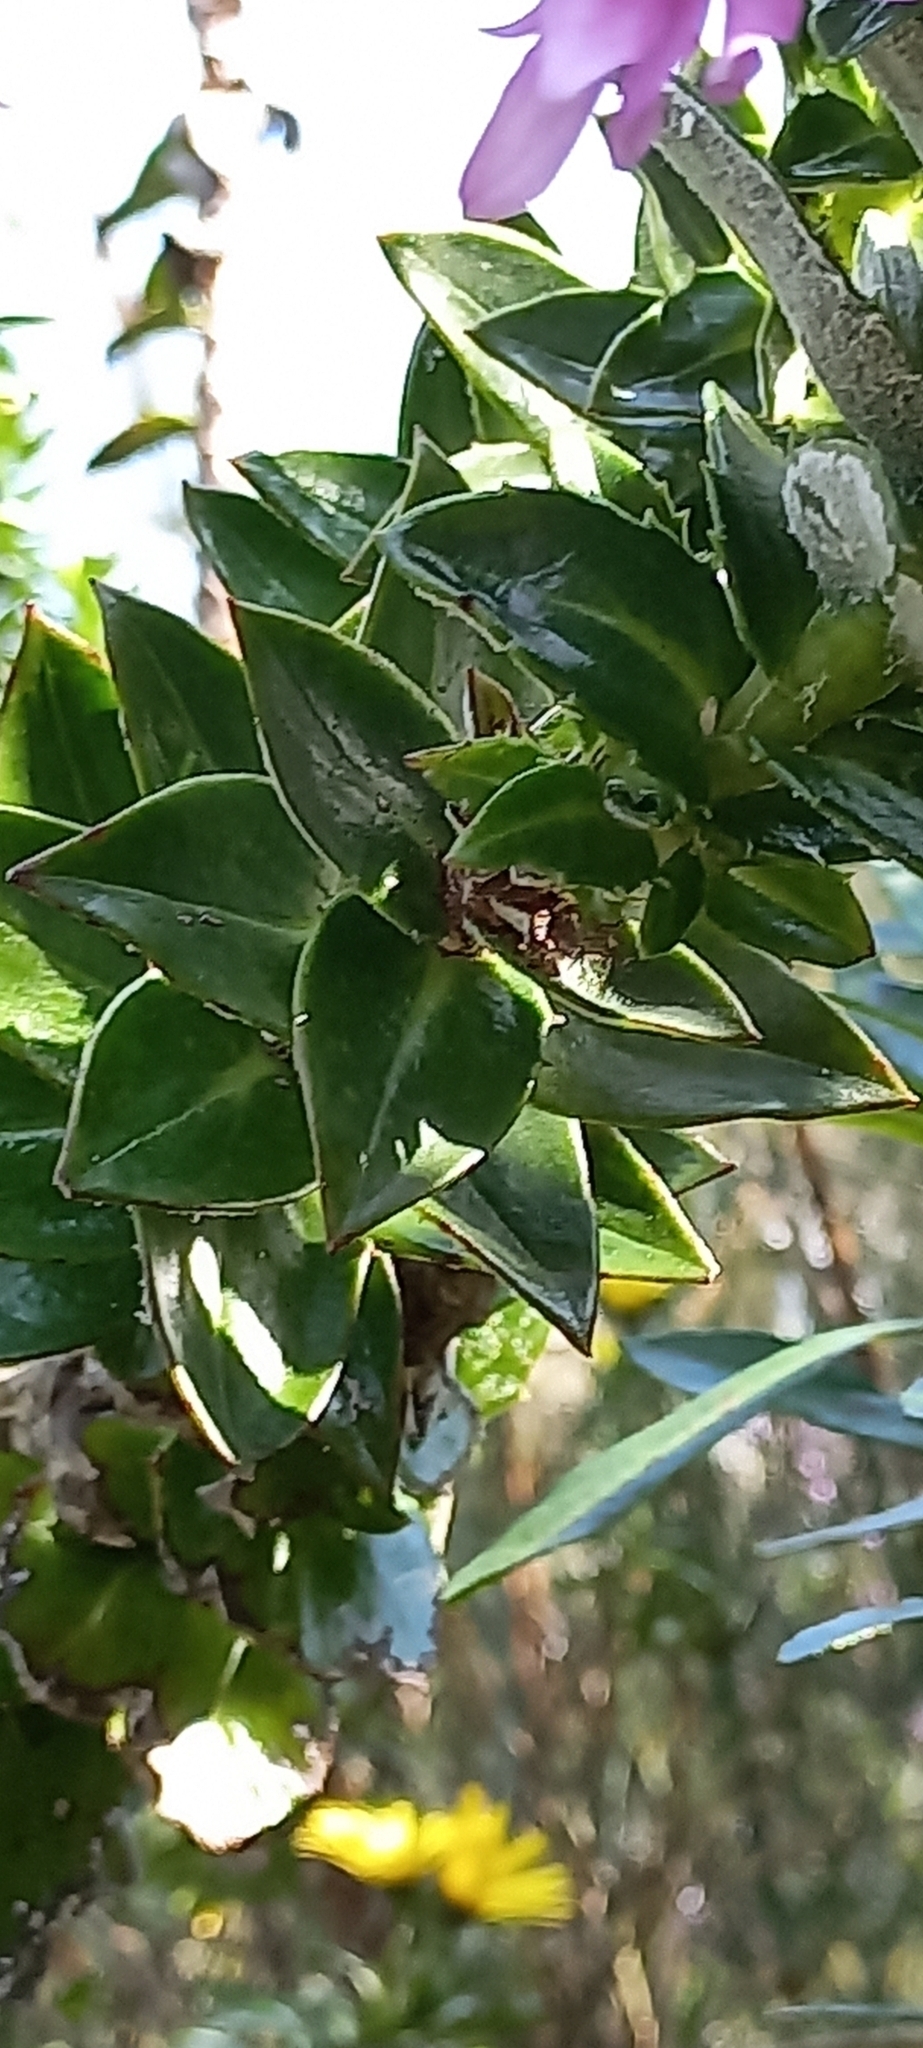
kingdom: Plantae
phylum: Tracheophyta
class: Magnoliopsida
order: Asterales
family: Asteraceae
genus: Senecio
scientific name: Senecio speciosissimus
